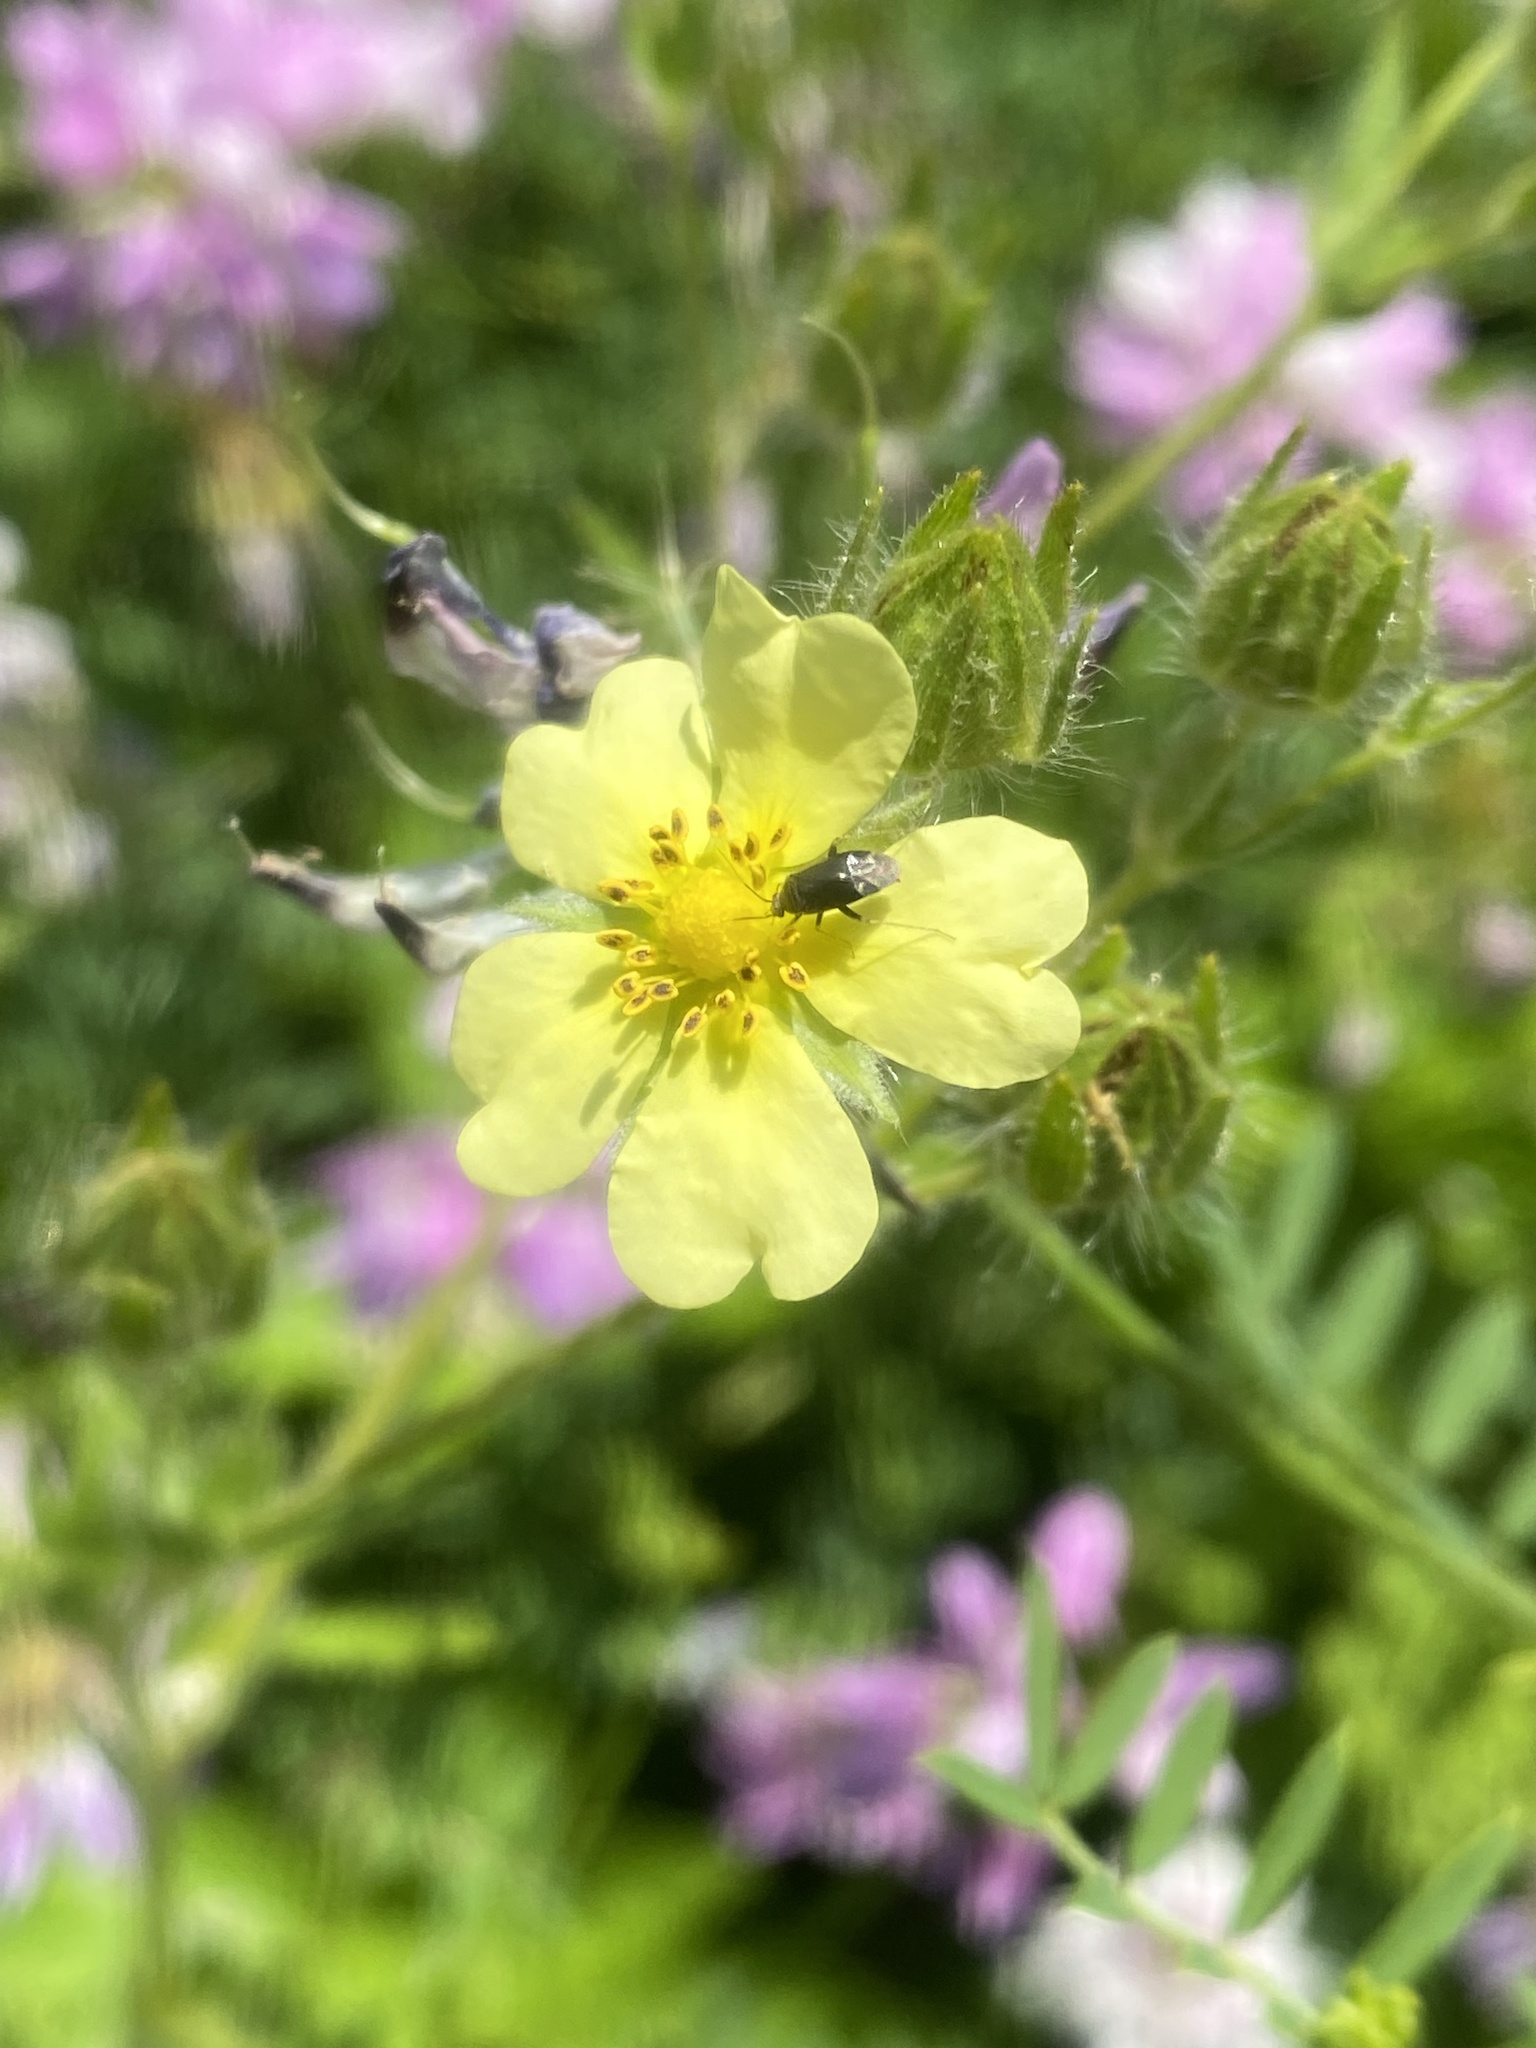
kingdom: Plantae
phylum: Tracheophyta
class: Magnoliopsida
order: Rosales
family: Rosaceae
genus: Potentilla
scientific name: Potentilla recta
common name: Sulphur cinquefoil
